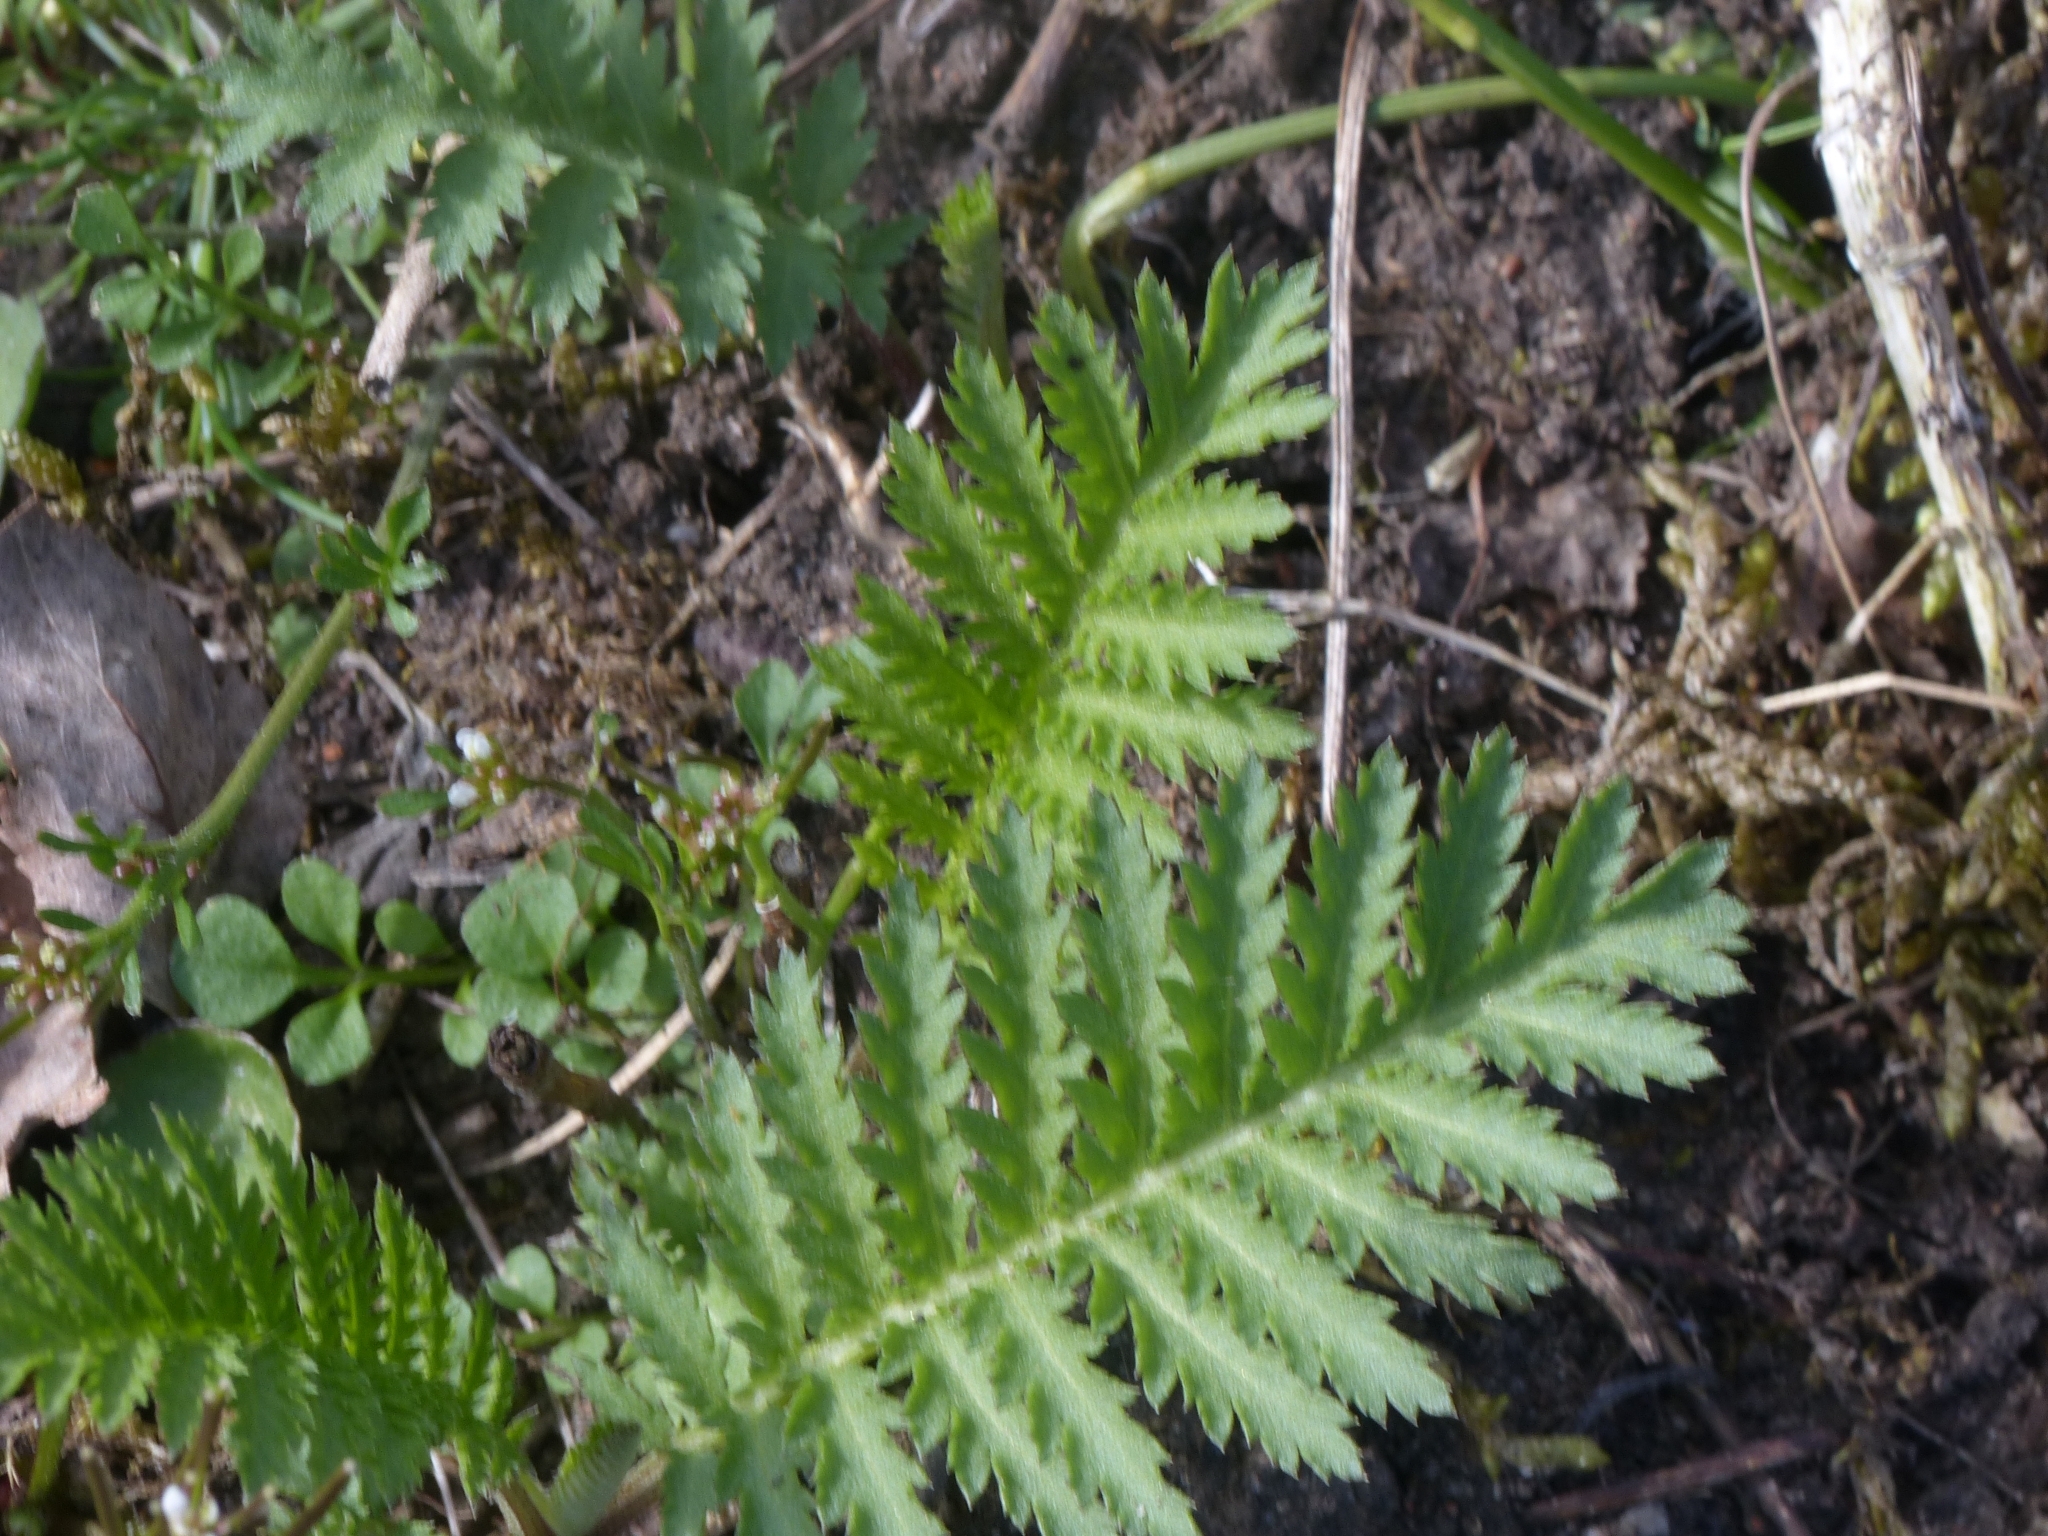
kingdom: Plantae
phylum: Tracheophyta
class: Magnoliopsida
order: Asterales
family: Asteraceae
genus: Tanacetum
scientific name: Tanacetum vulgare
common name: Common tansy
